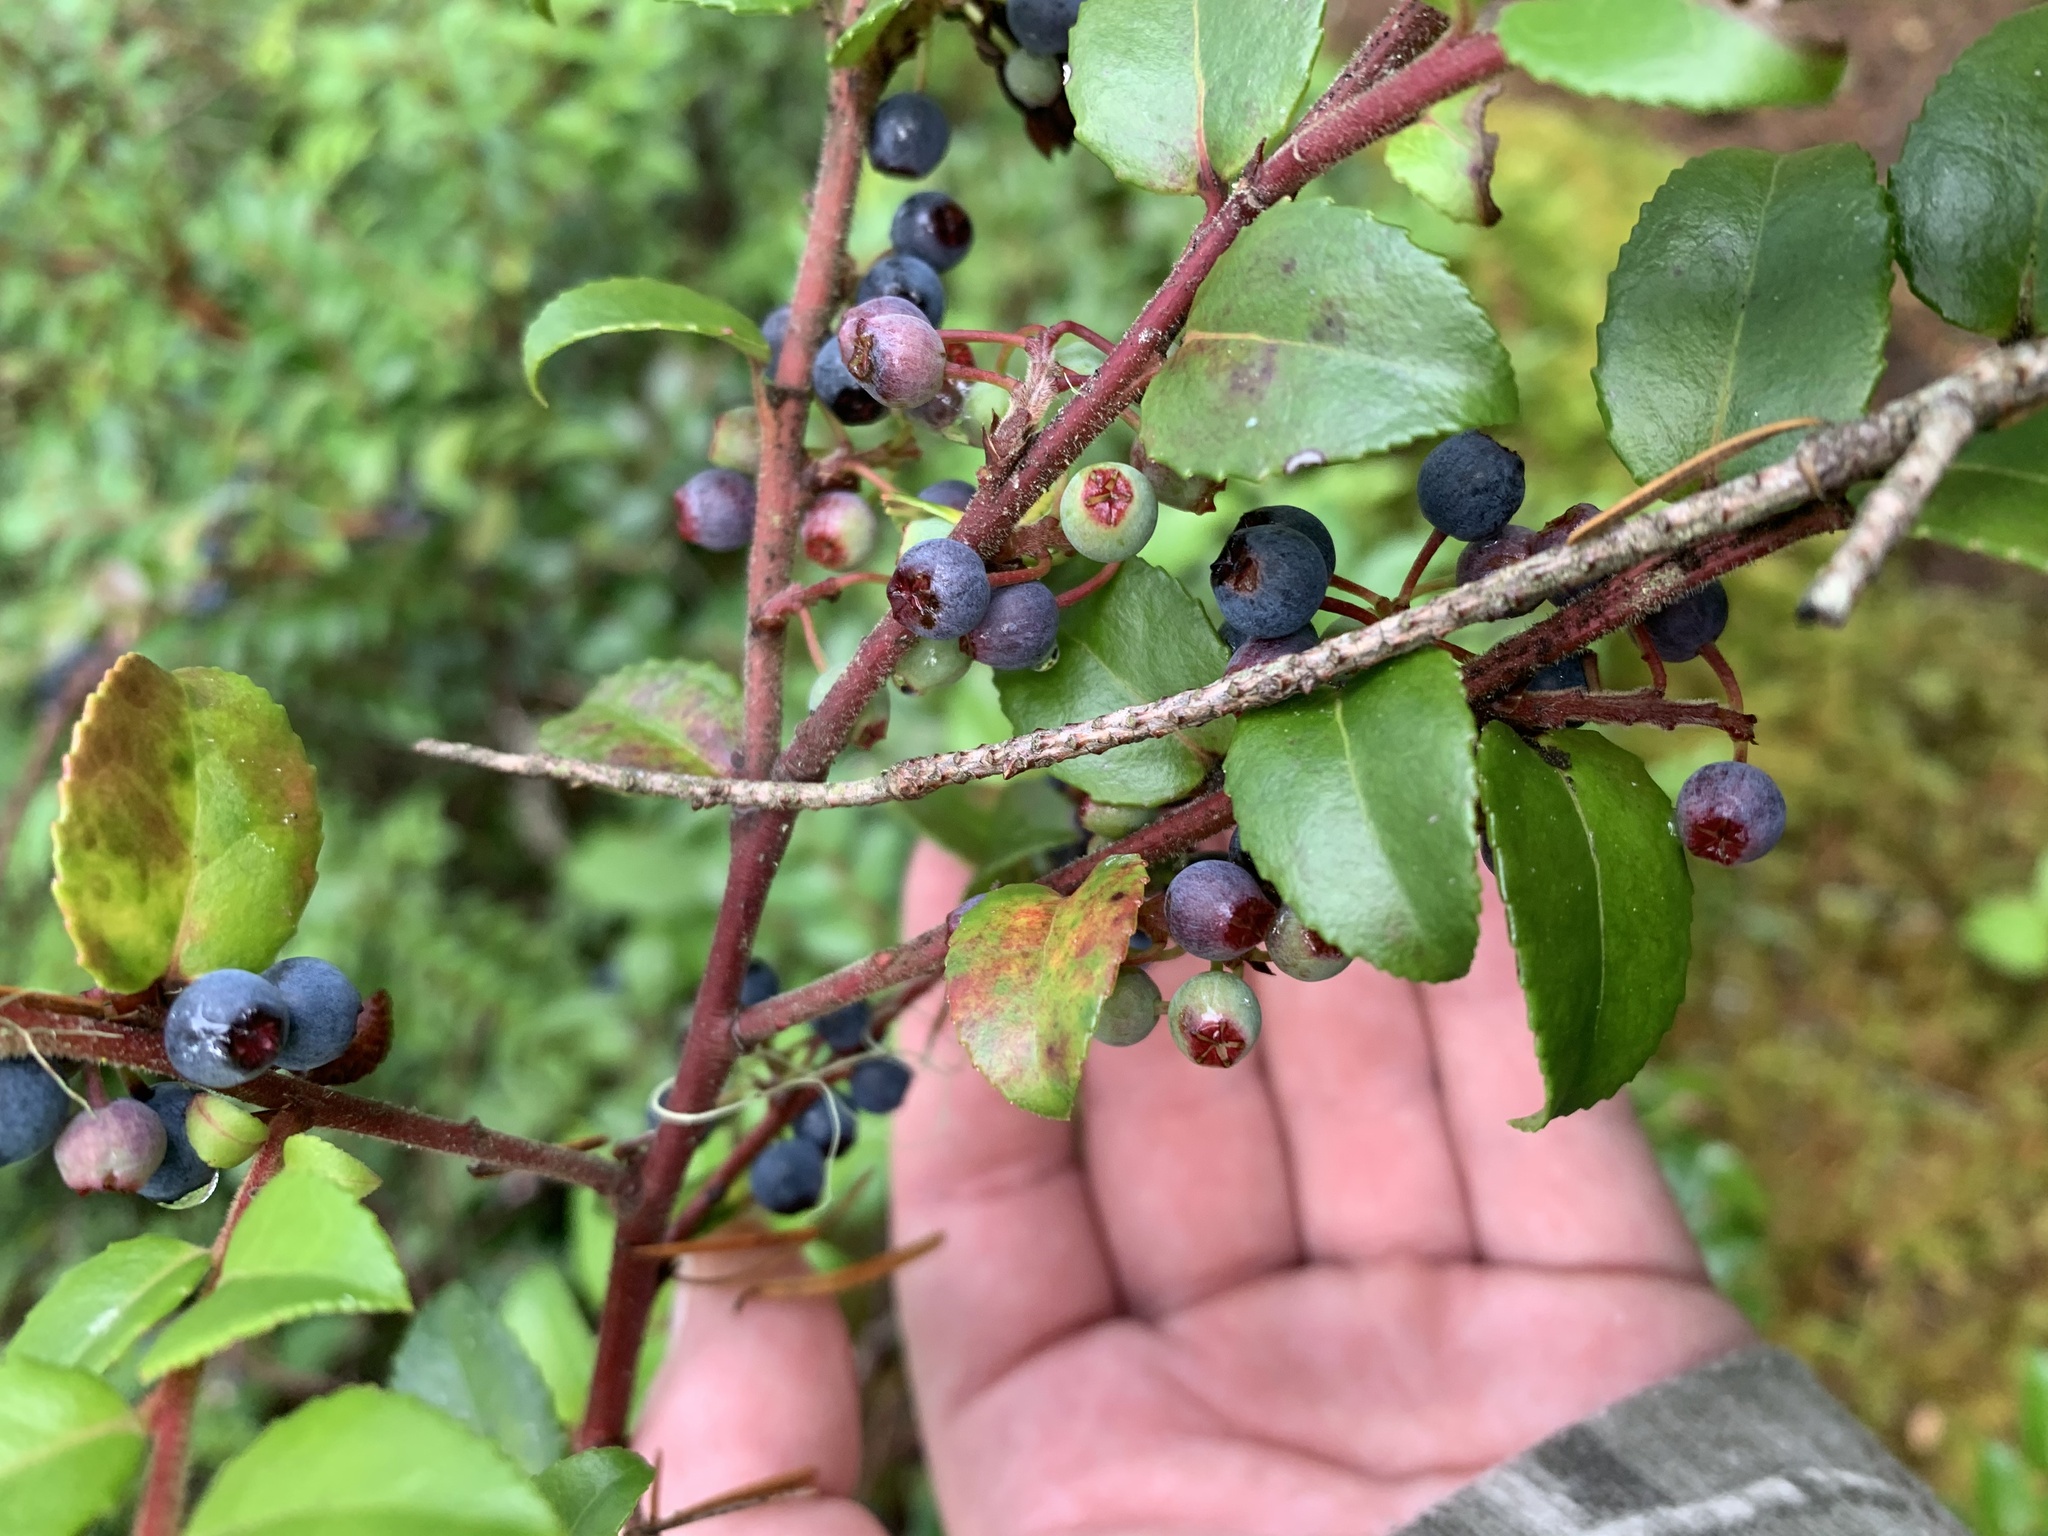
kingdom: Plantae
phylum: Tracheophyta
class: Magnoliopsida
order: Ericales
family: Ericaceae
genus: Vaccinium
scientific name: Vaccinium ovatum
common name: California-huckleberry
